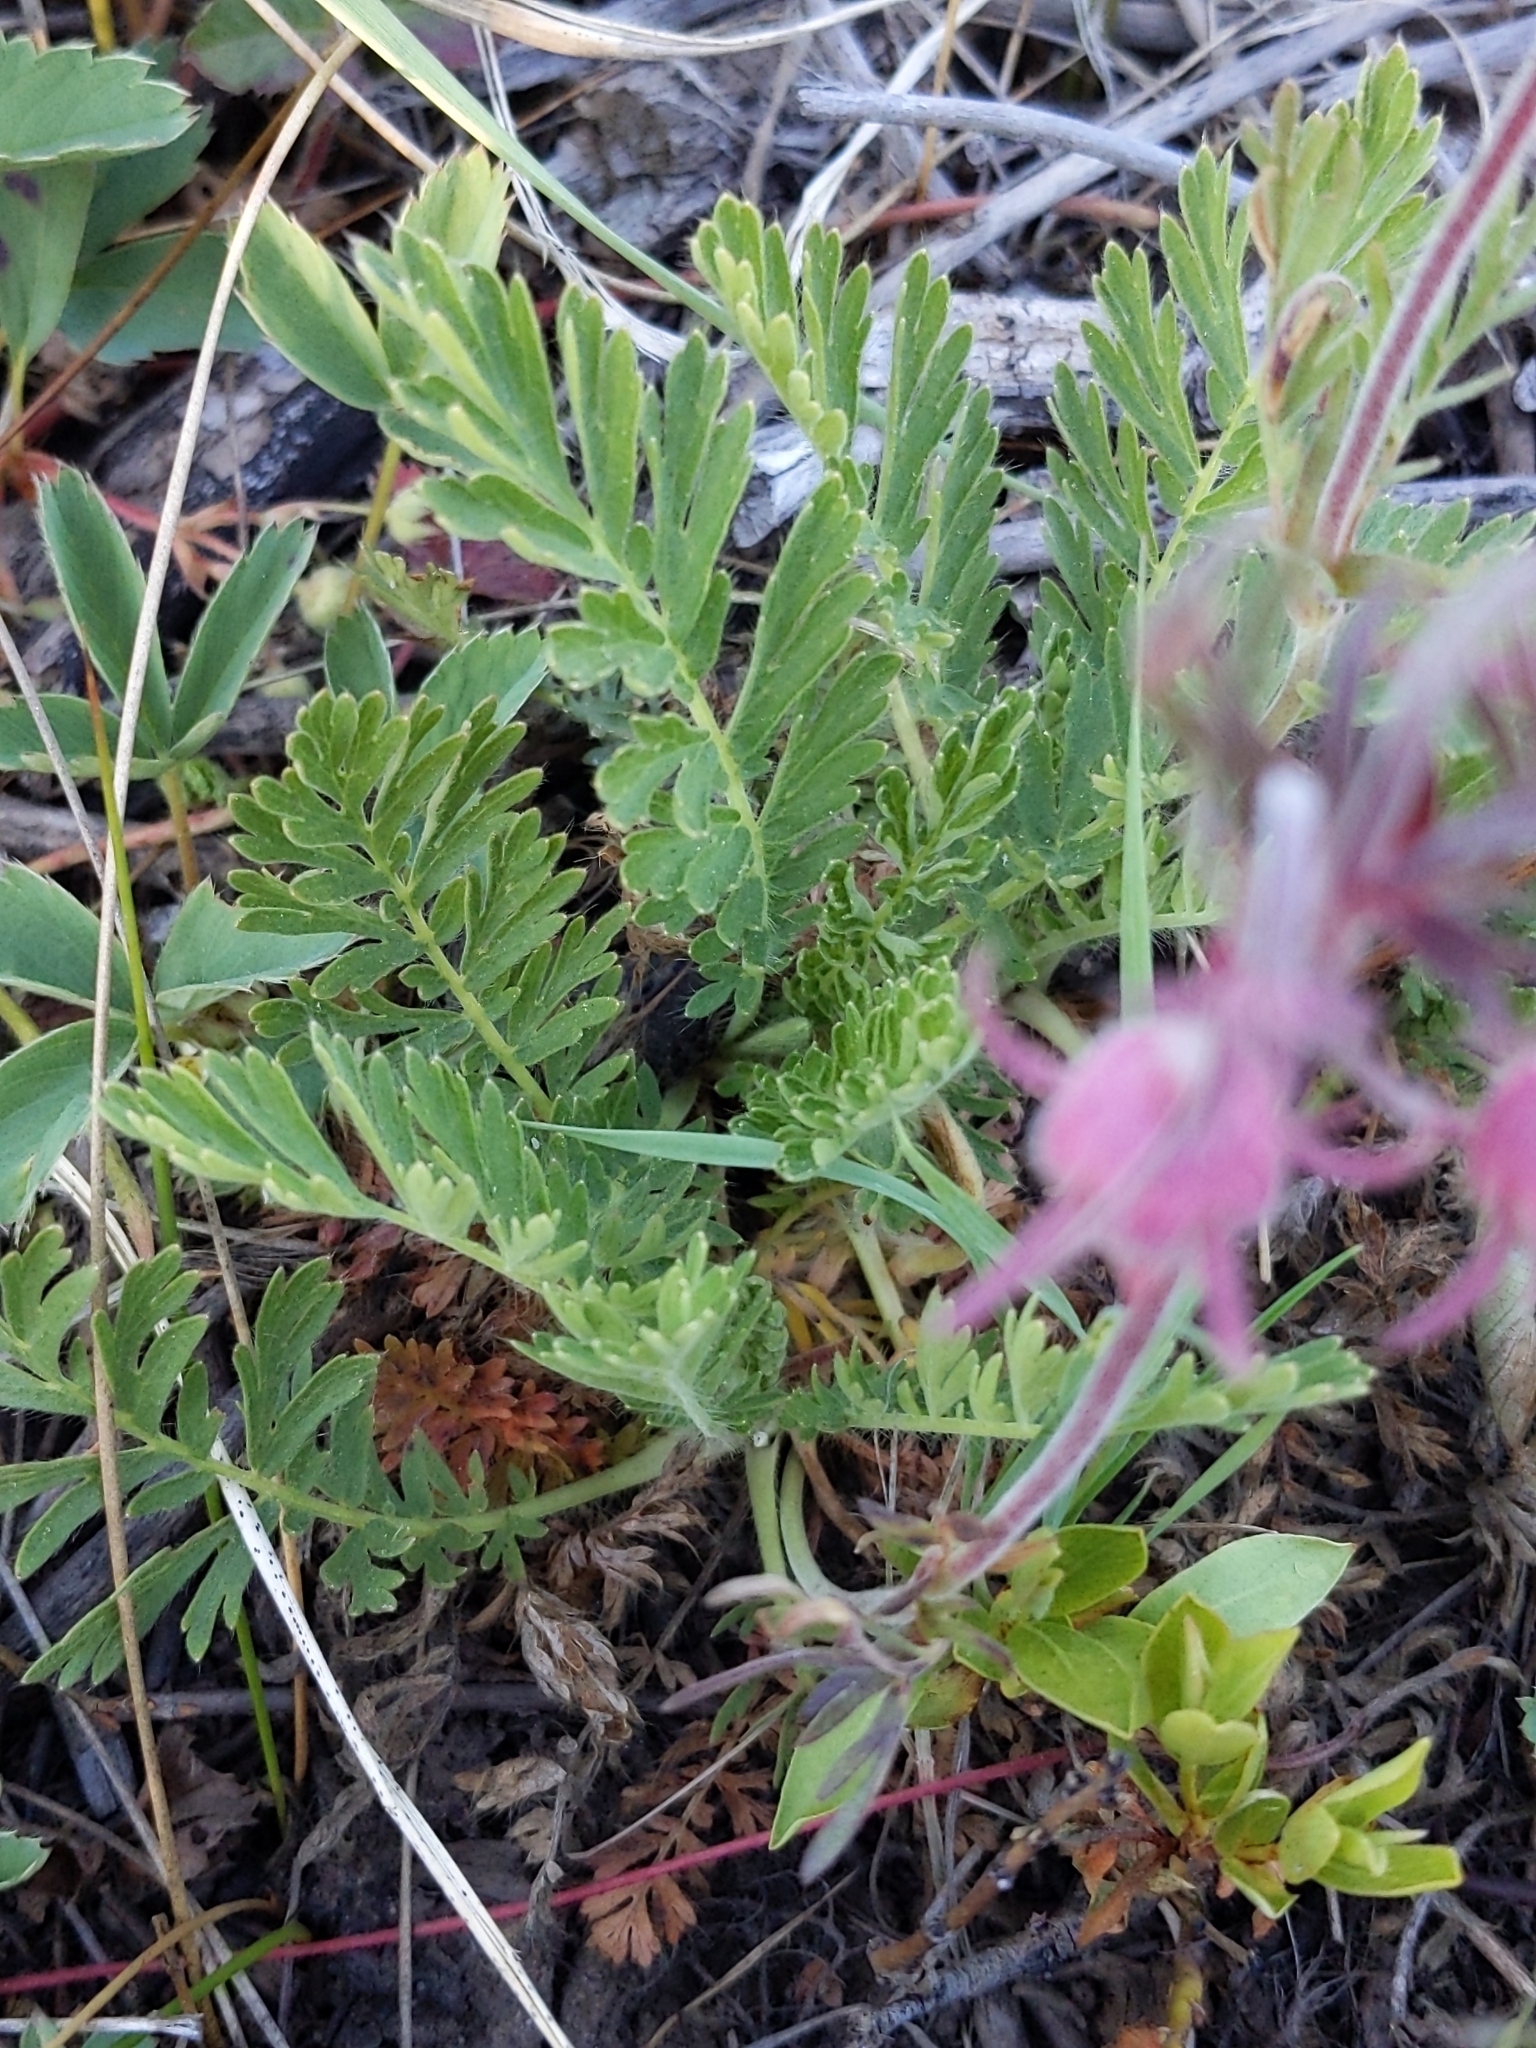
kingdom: Plantae
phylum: Tracheophyta
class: Magnoliopsida
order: Rosales
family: Rosaceae
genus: Geum
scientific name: Geum triflorum
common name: Old man's whiskers
